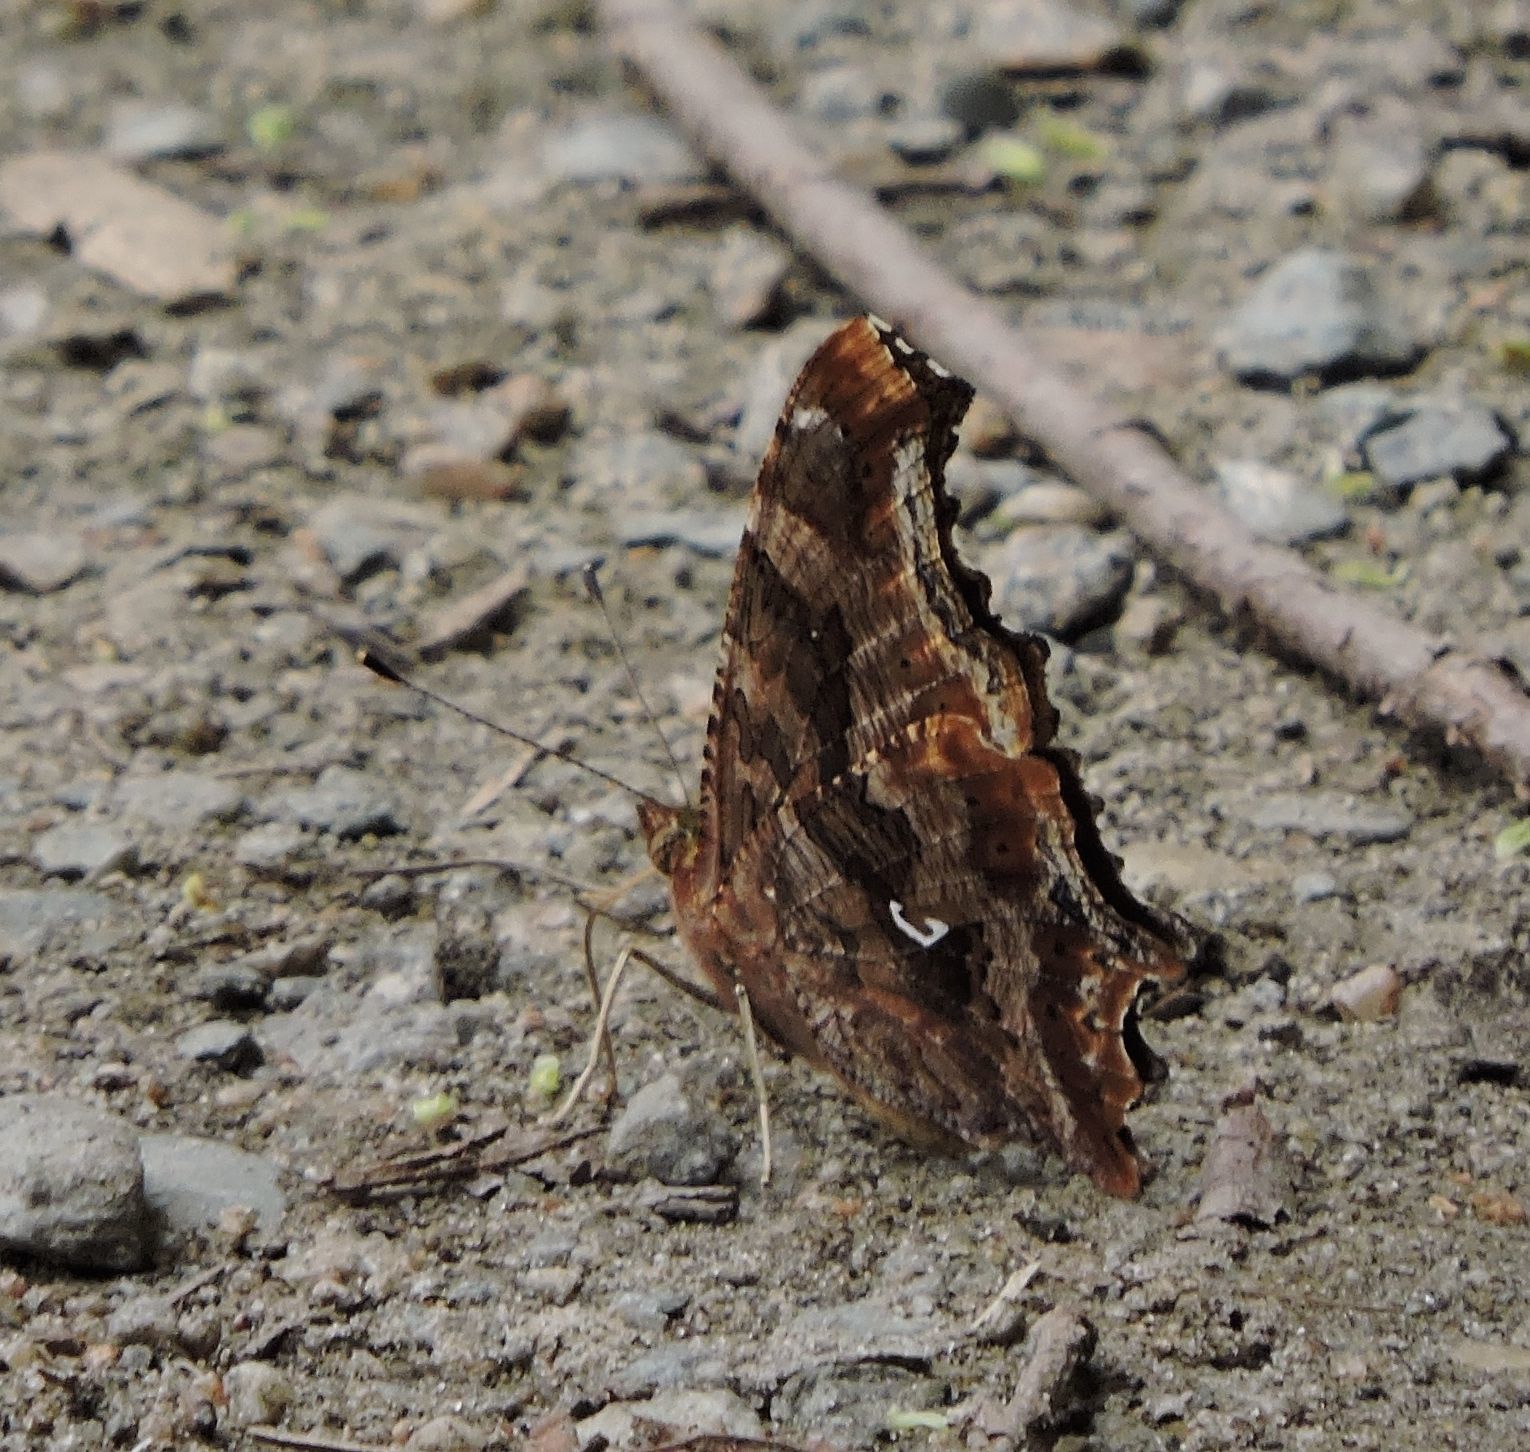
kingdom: Animalia
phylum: Arthropoda
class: Insecta
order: Lepidoptera
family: Nymphalidae
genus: Polygonia
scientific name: Polygonia comma
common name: Eastern comma
